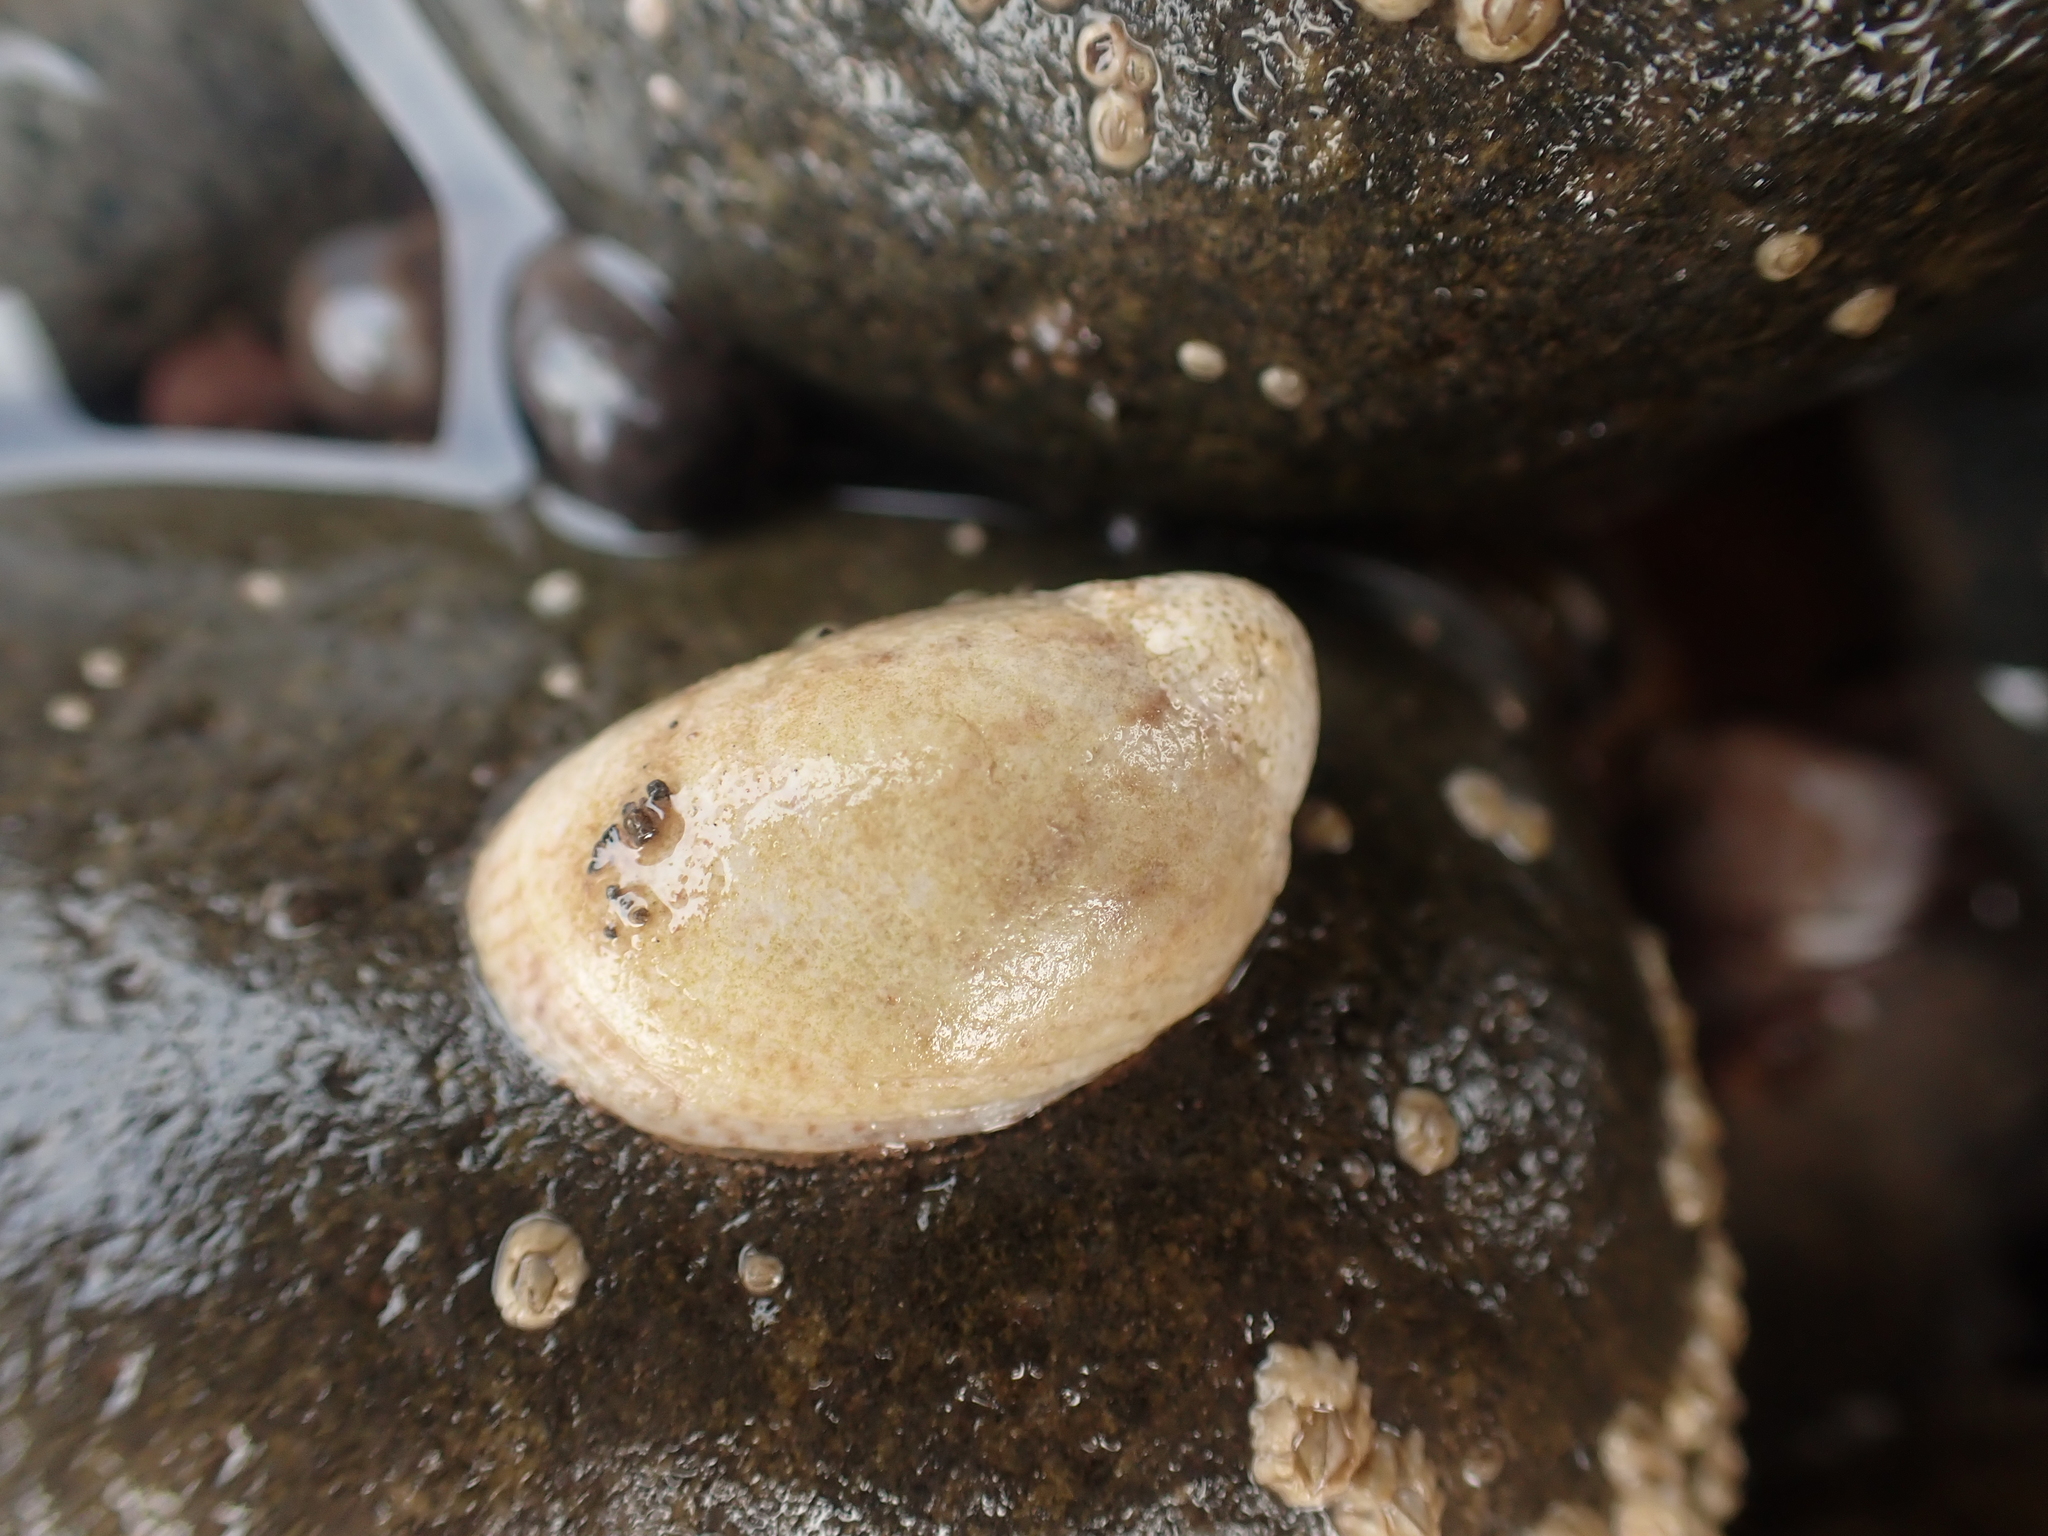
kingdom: Animalia
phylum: Mollusca
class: Gastropoda
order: Littorinimorpha
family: Calyptraeidae
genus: Crepidula
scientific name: Crepidula fornicata
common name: Slipper limpet
